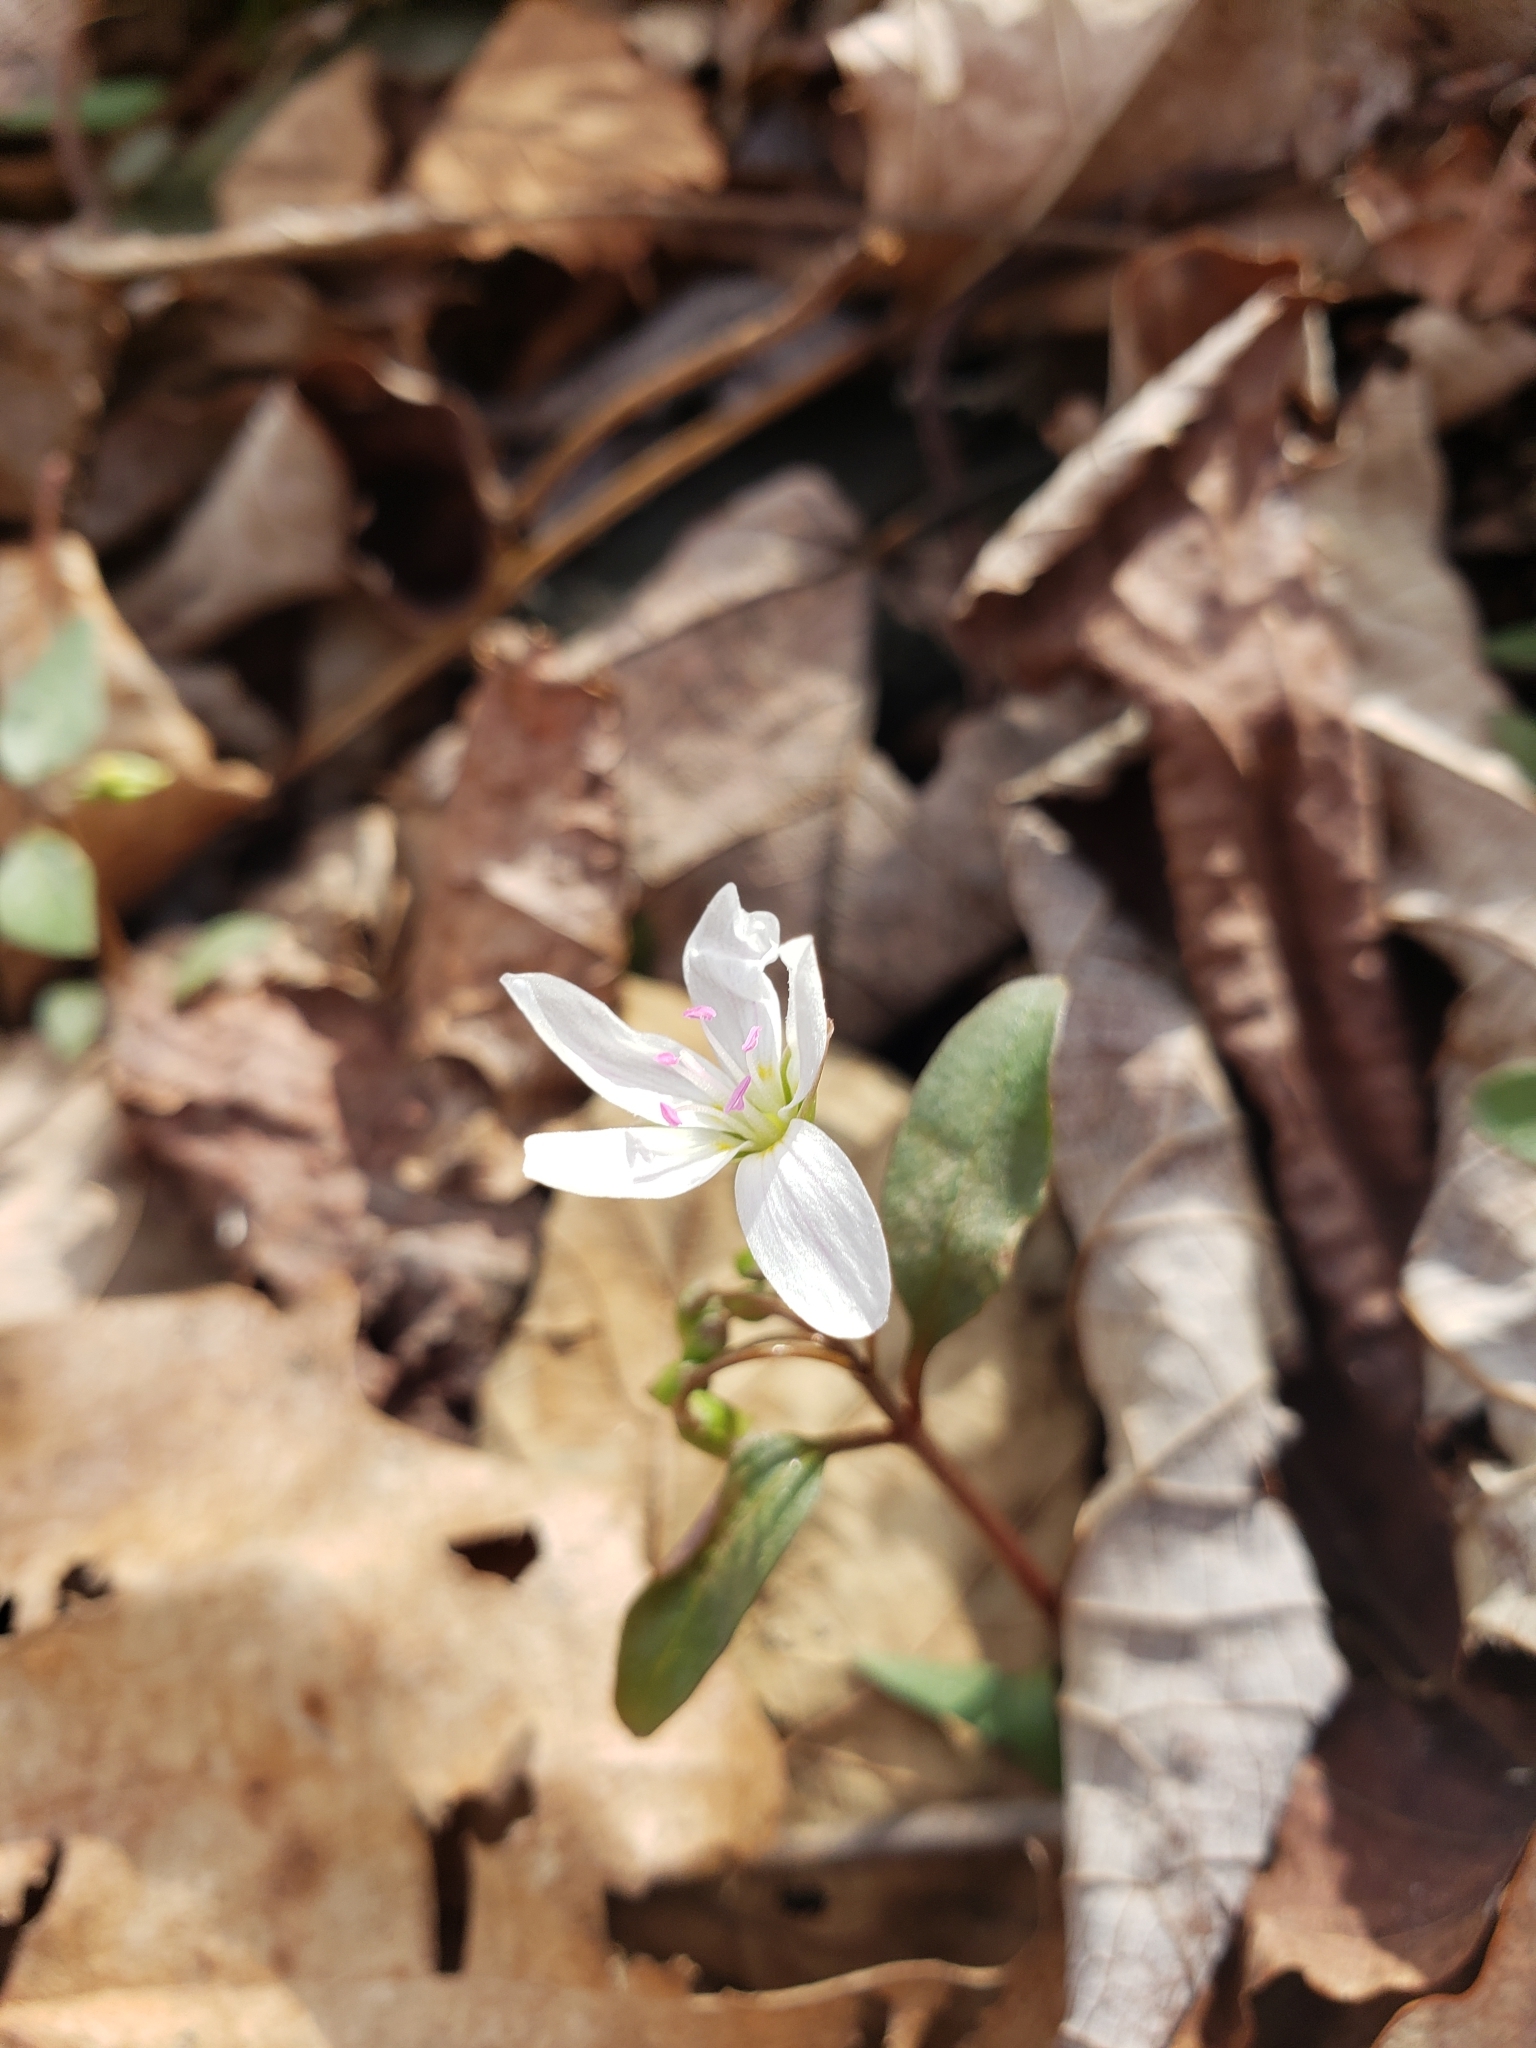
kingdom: Plantae
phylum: Tracheophyta
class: Magnoliopsida
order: Caryophyllales
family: Montiaceae
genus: Claytonia
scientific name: Claytonia caroliniana
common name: Carolina spring beauty
